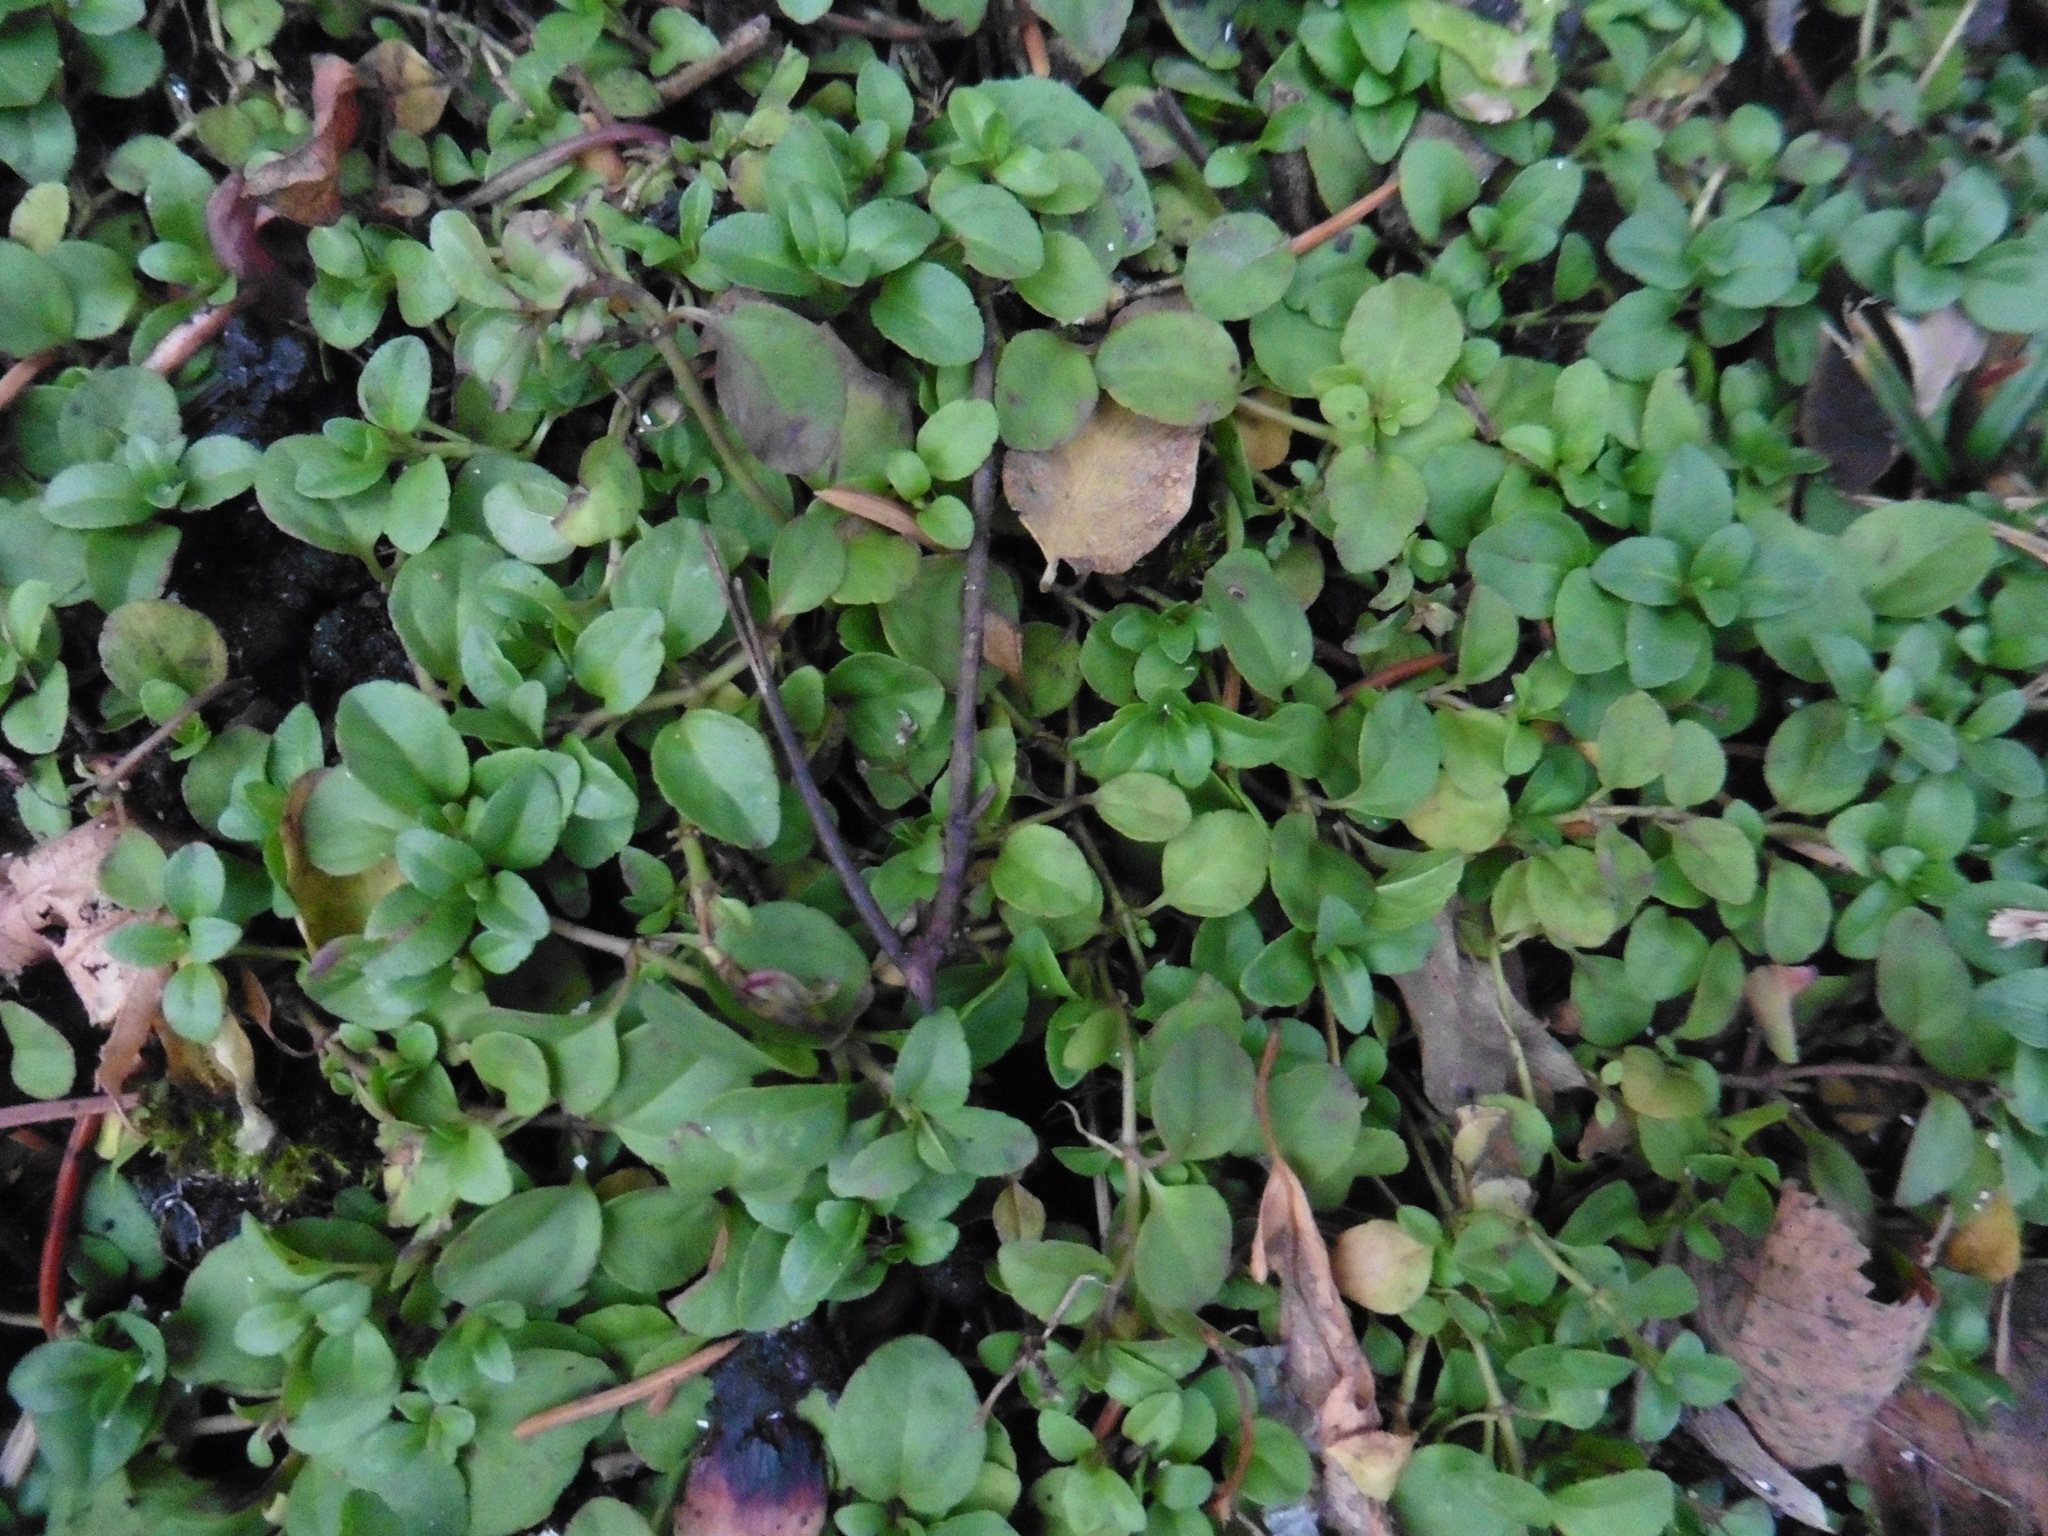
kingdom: Plantae
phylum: Tracheophyta
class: Magnoliopsida
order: Lamiales
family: Plantaginaceae
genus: Veronica
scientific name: Veronica serpyllifolia
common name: Thyme-leaved speedwell
